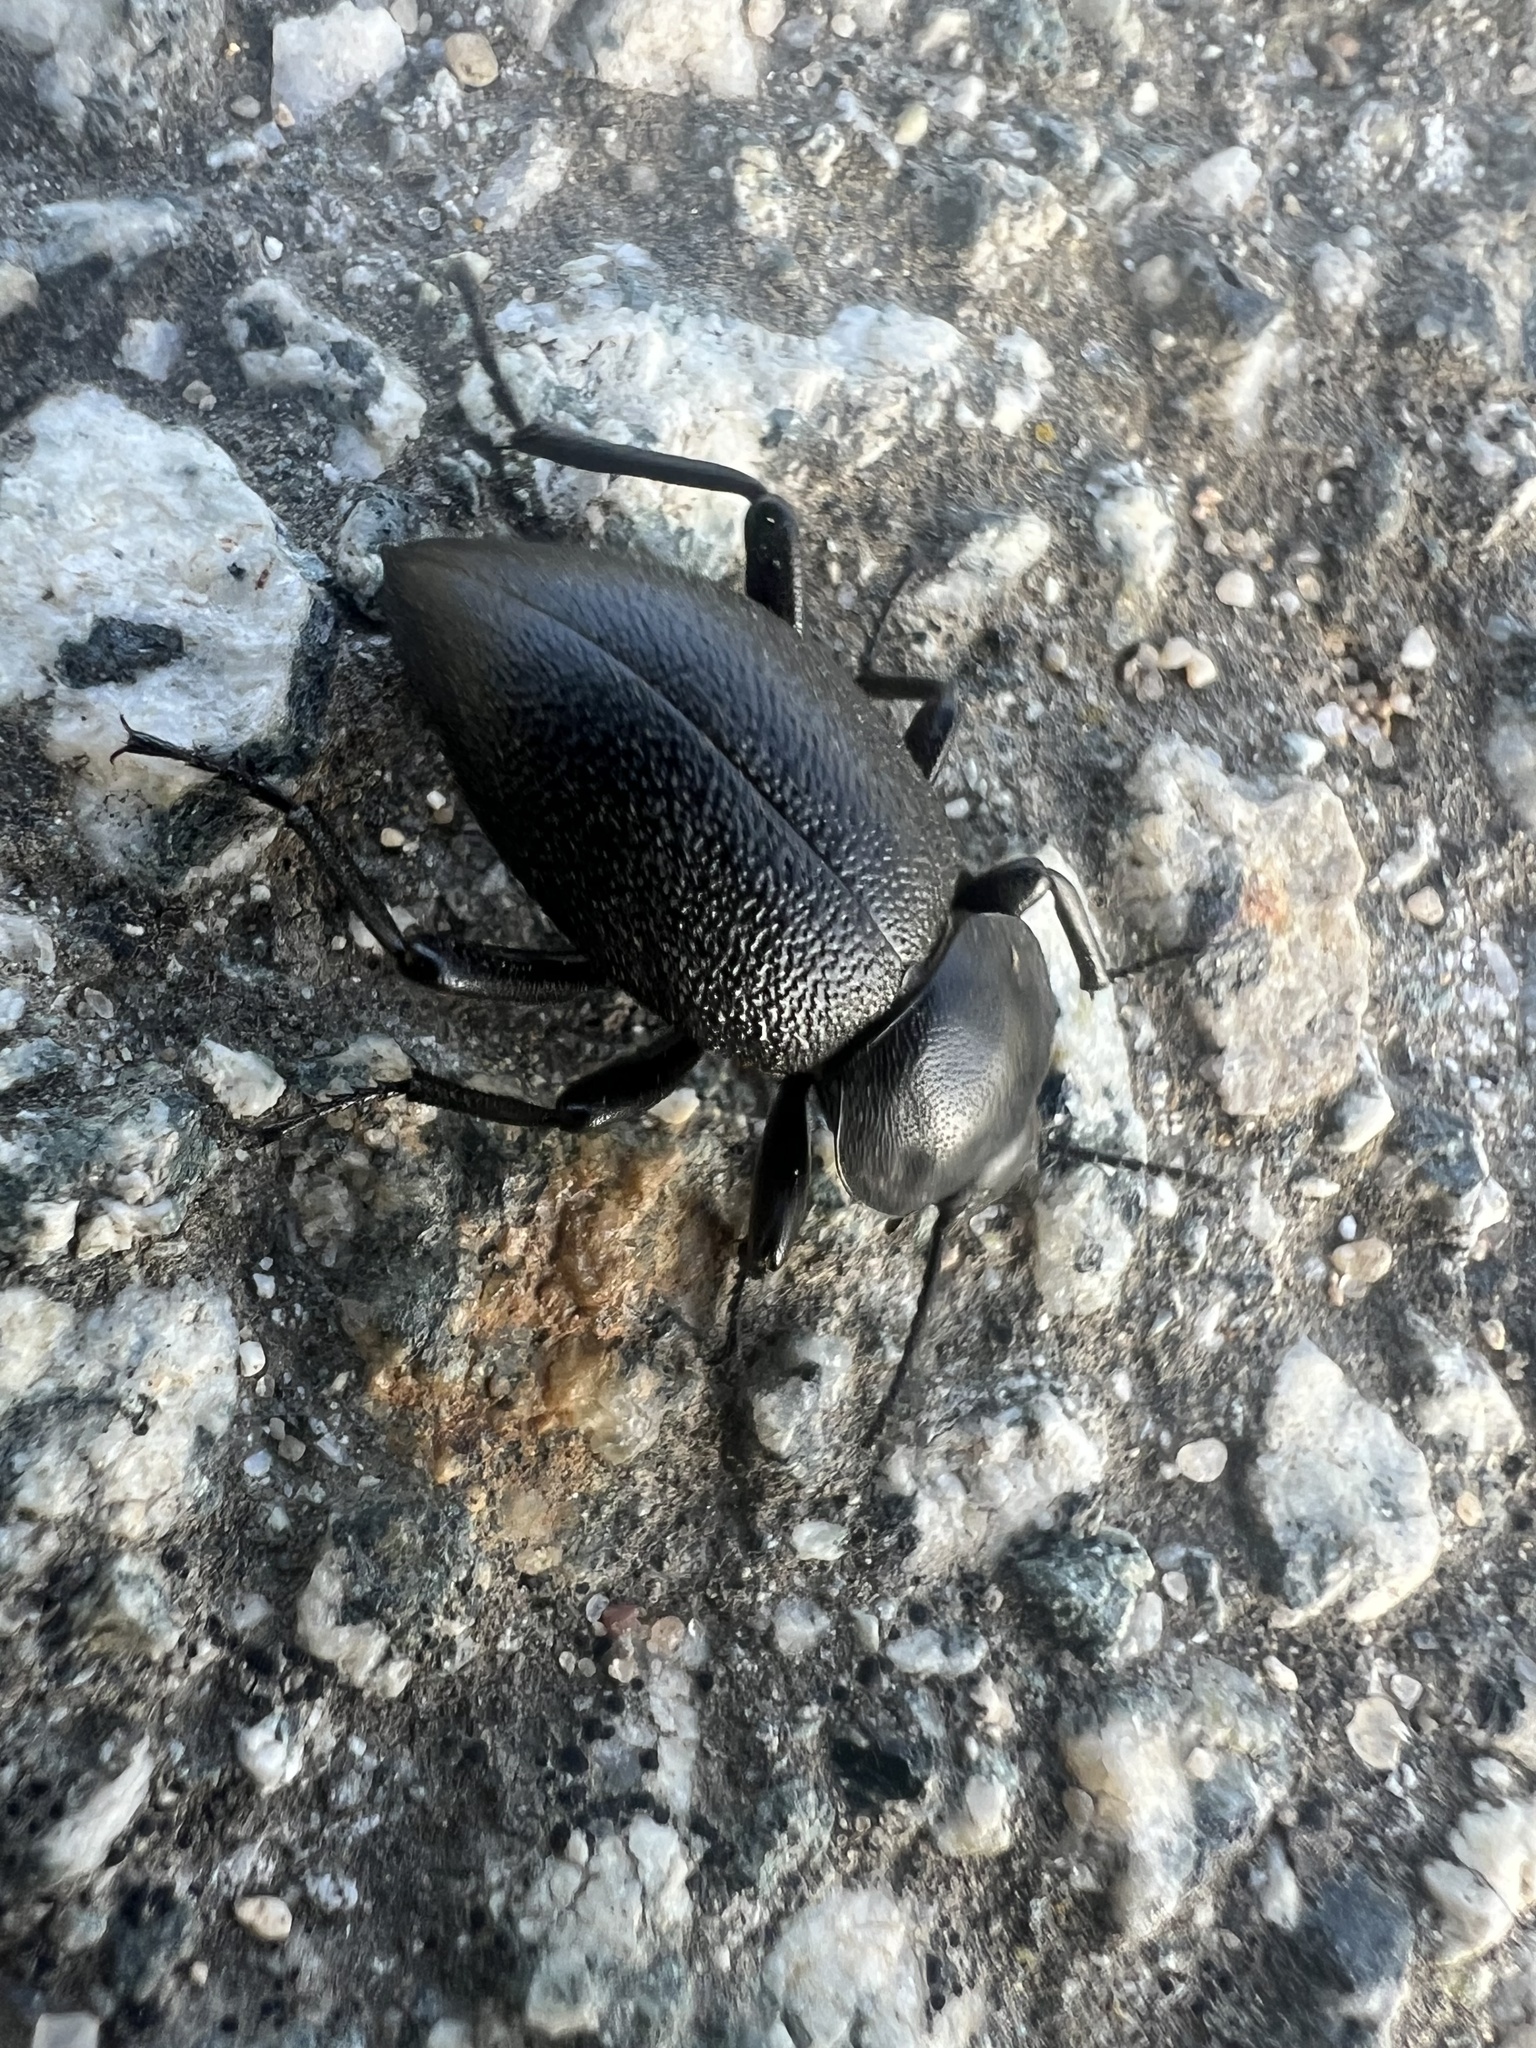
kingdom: Animalia
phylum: Arthropoda
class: Insecta
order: Coleoptera
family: Tenebrionidae
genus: Eleodes
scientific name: Eleodes marginata
